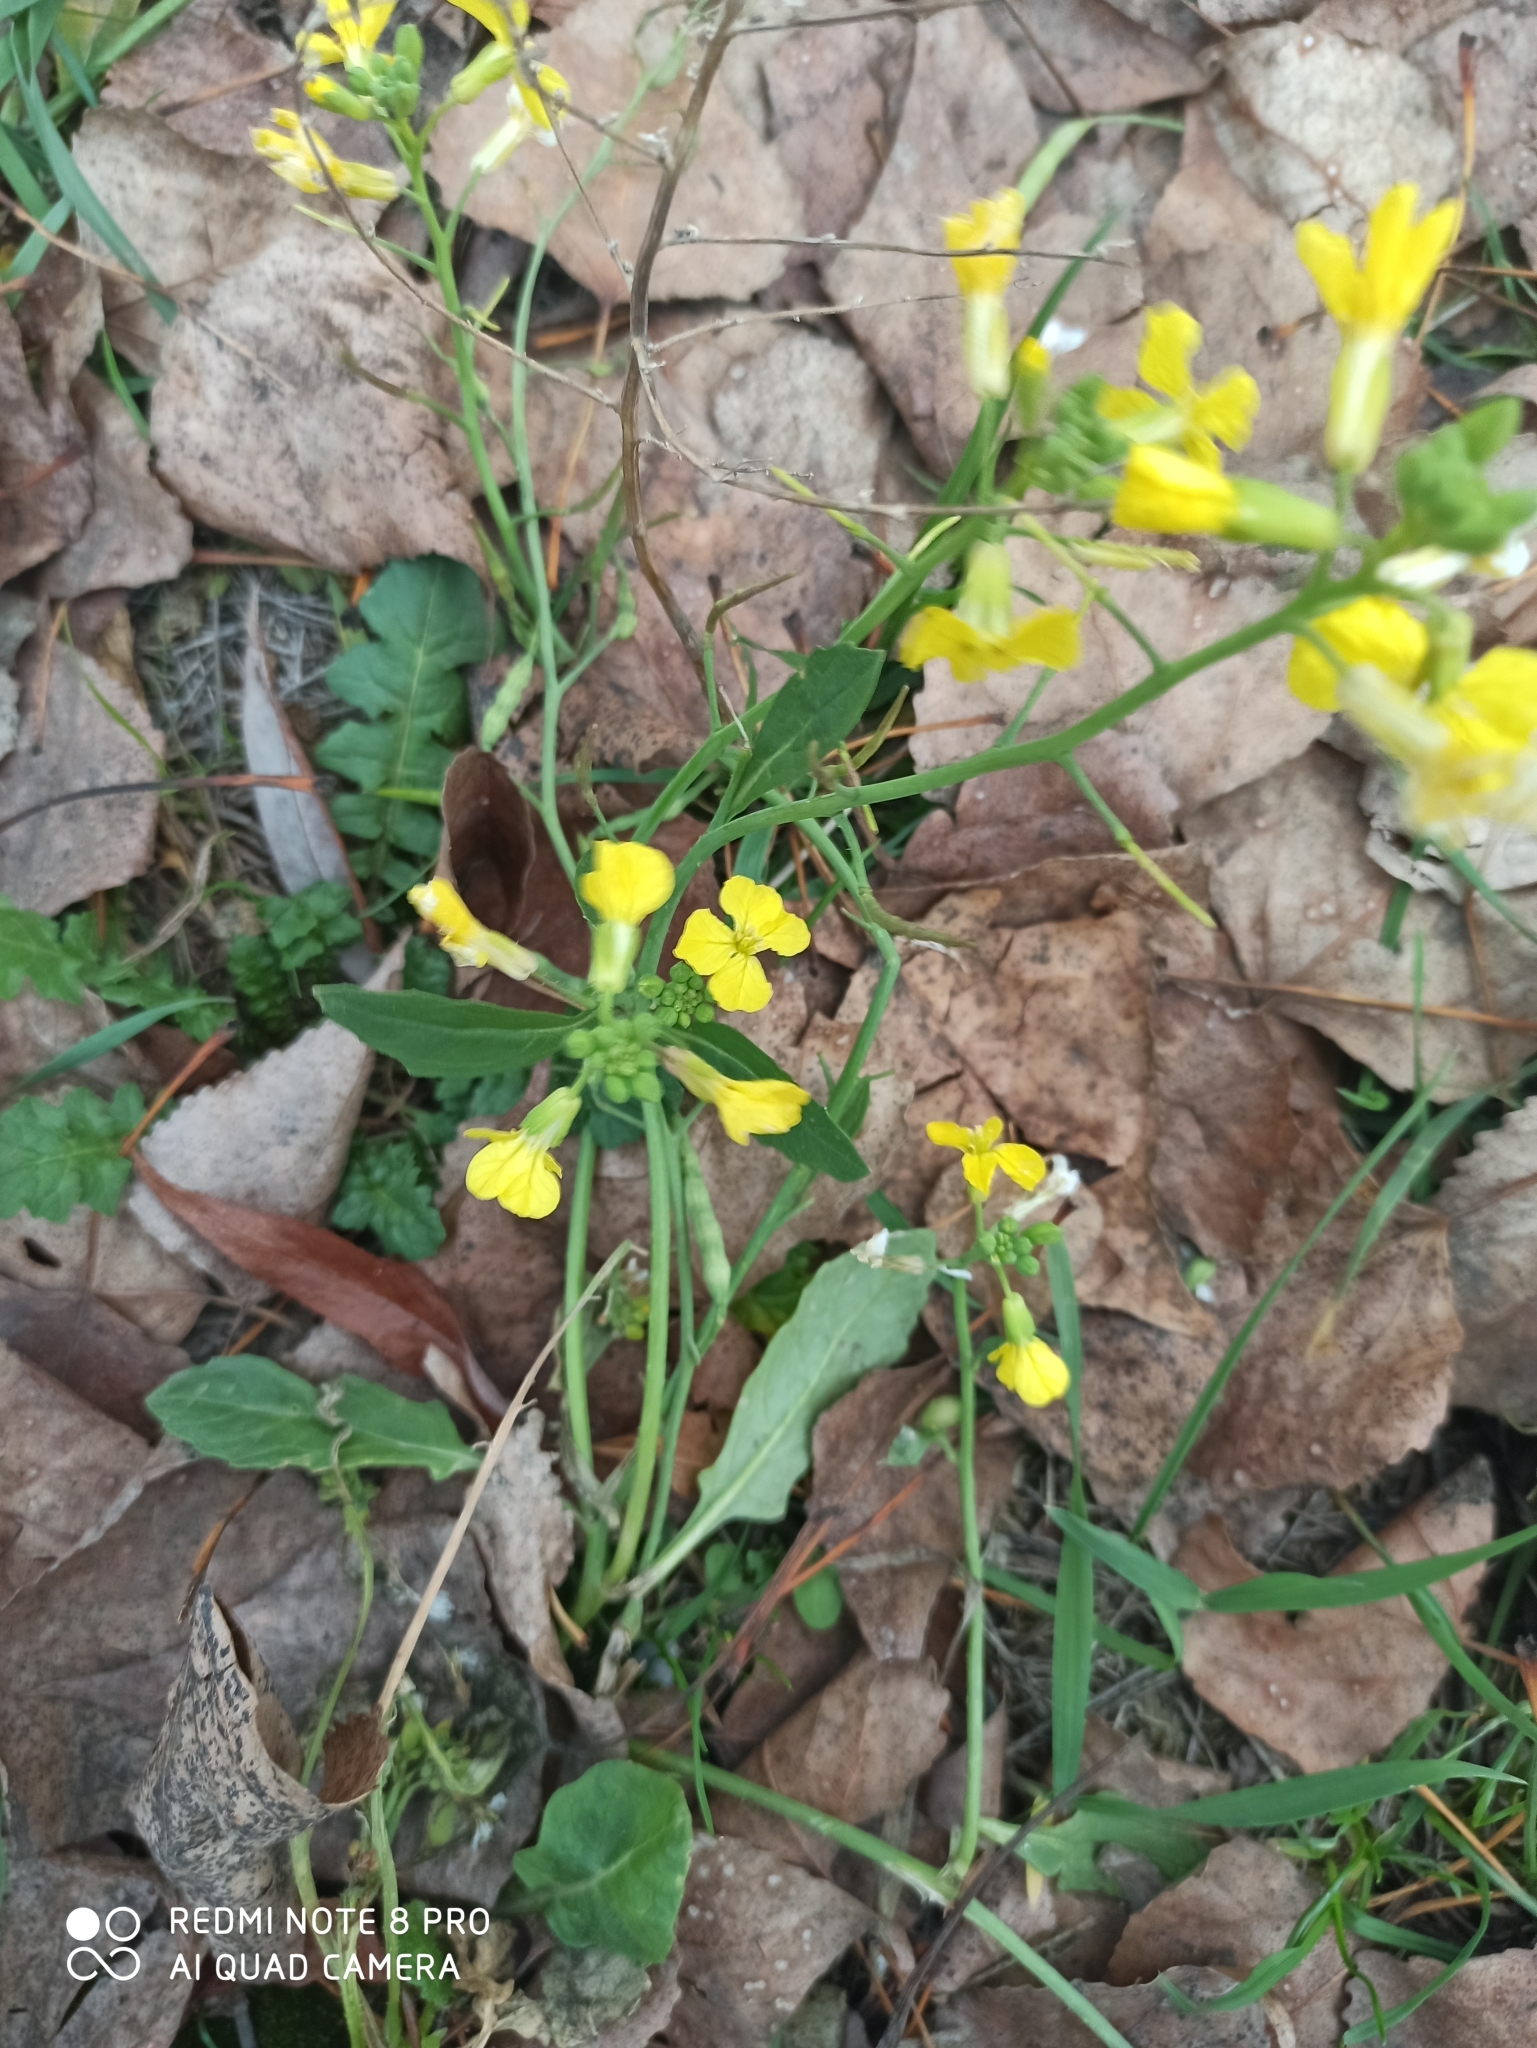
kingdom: Plantae
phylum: Tracheophyta
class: Magnoliopsida
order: Brassicales
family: Brassicaceae
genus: Raphanus
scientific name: Raphanus raphanistrum
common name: Wild radish
